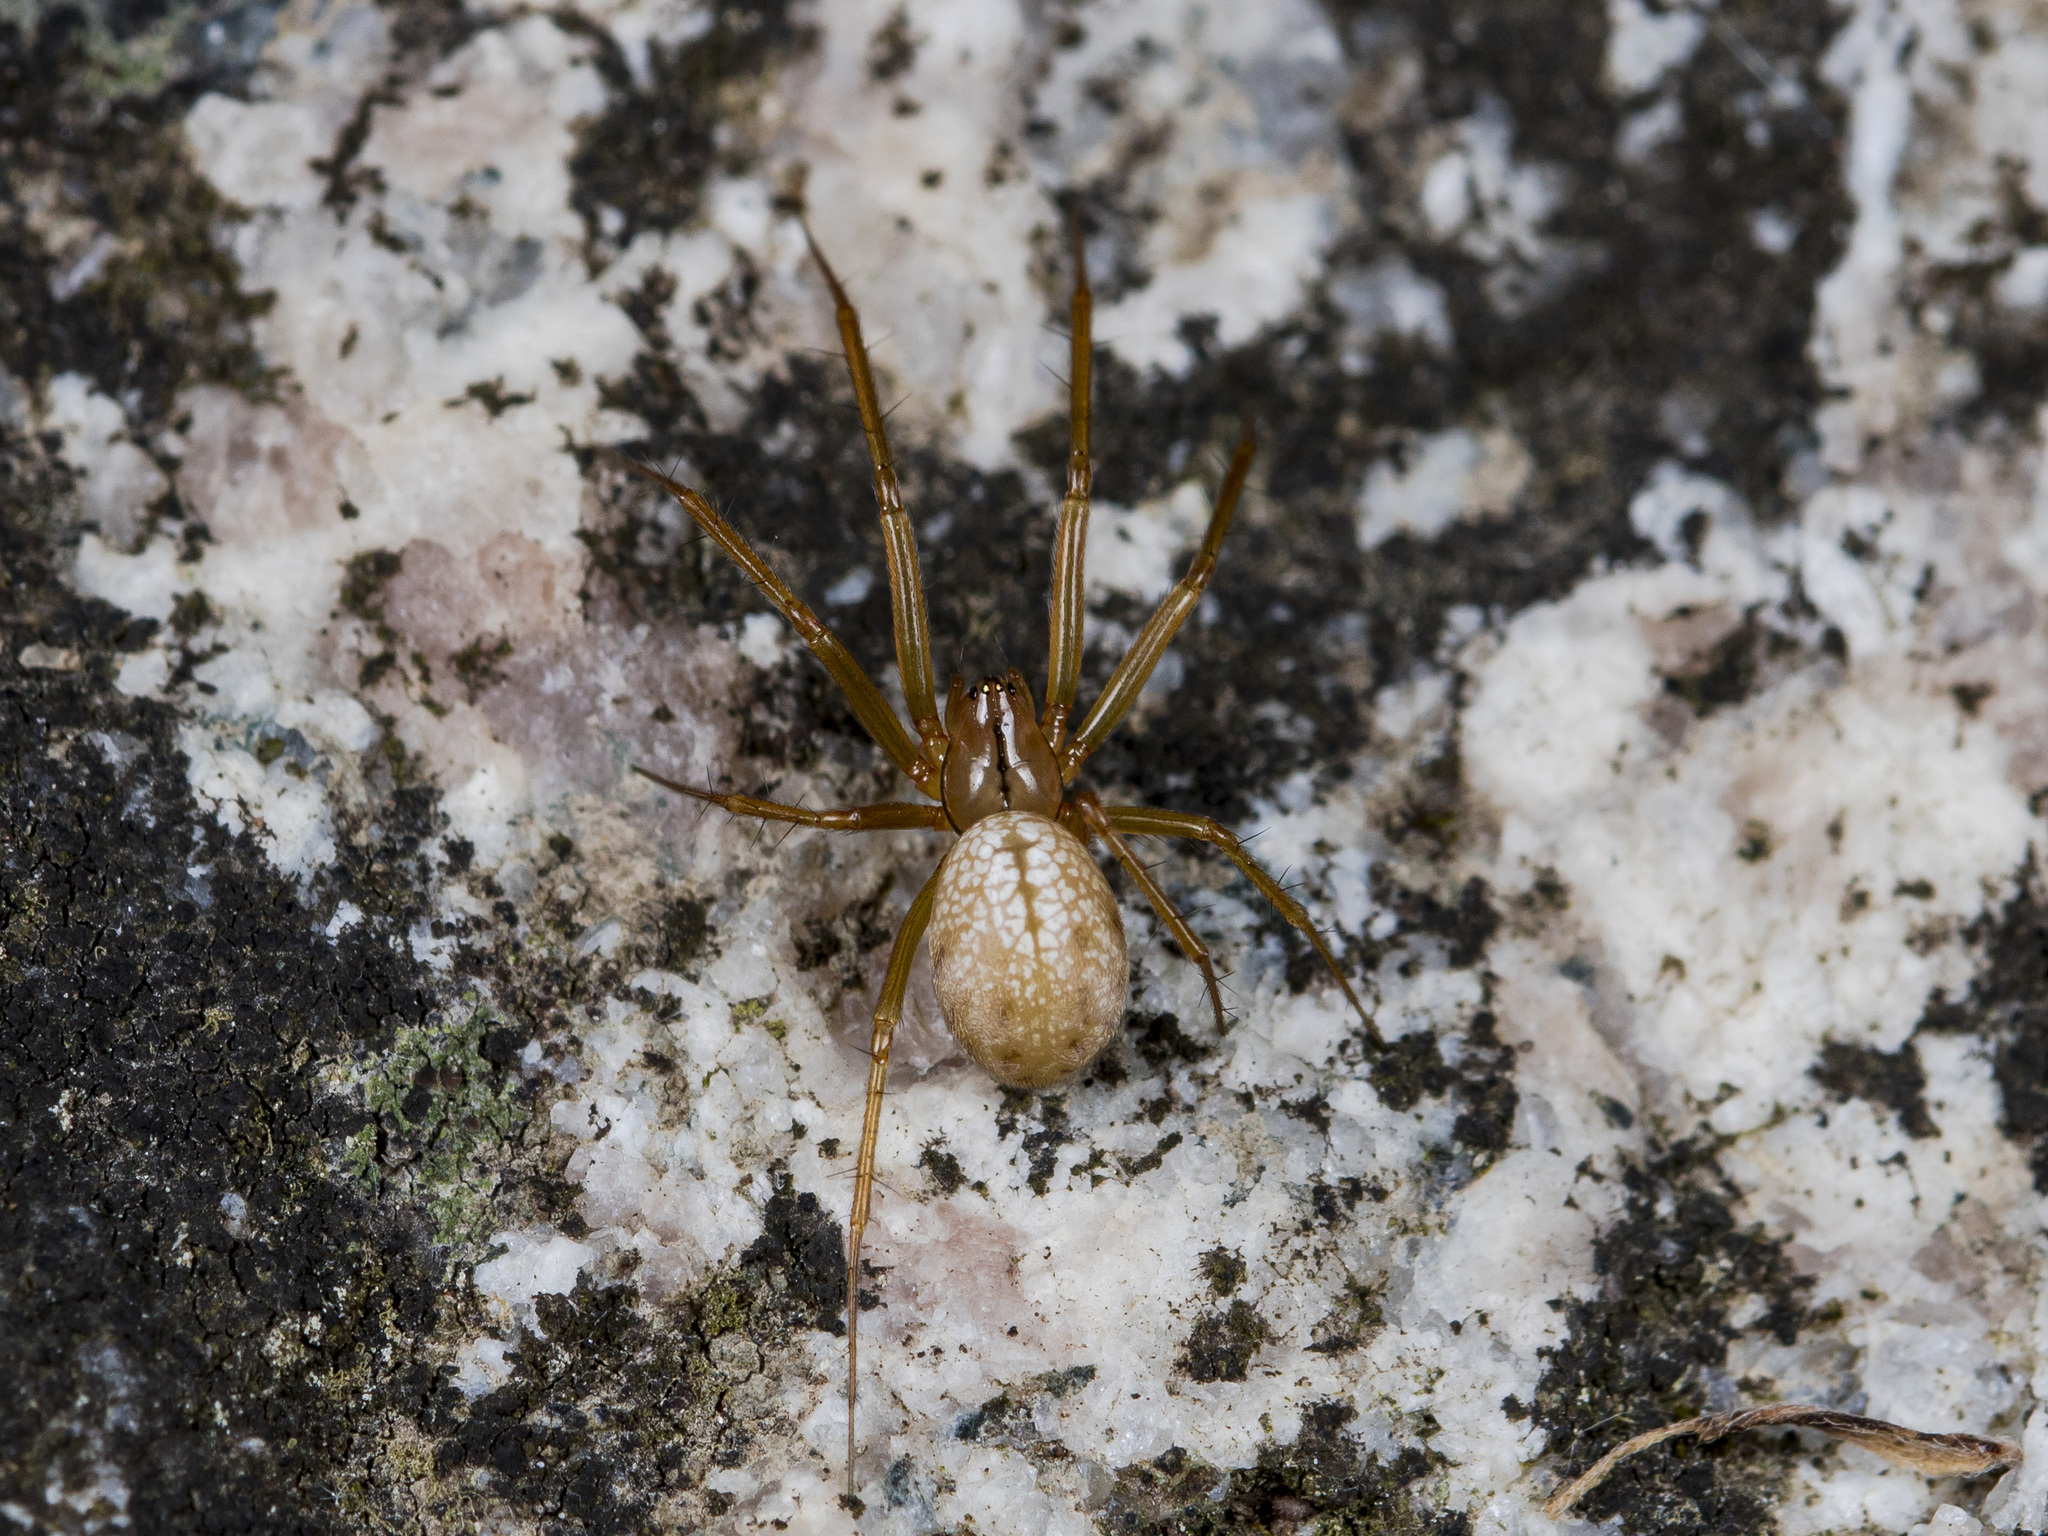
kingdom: Animalia
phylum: Arthropoda
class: Arachnida
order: Araneae
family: Linyphiidae
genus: Bolyphantes
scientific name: Bolyphantes alticeps
